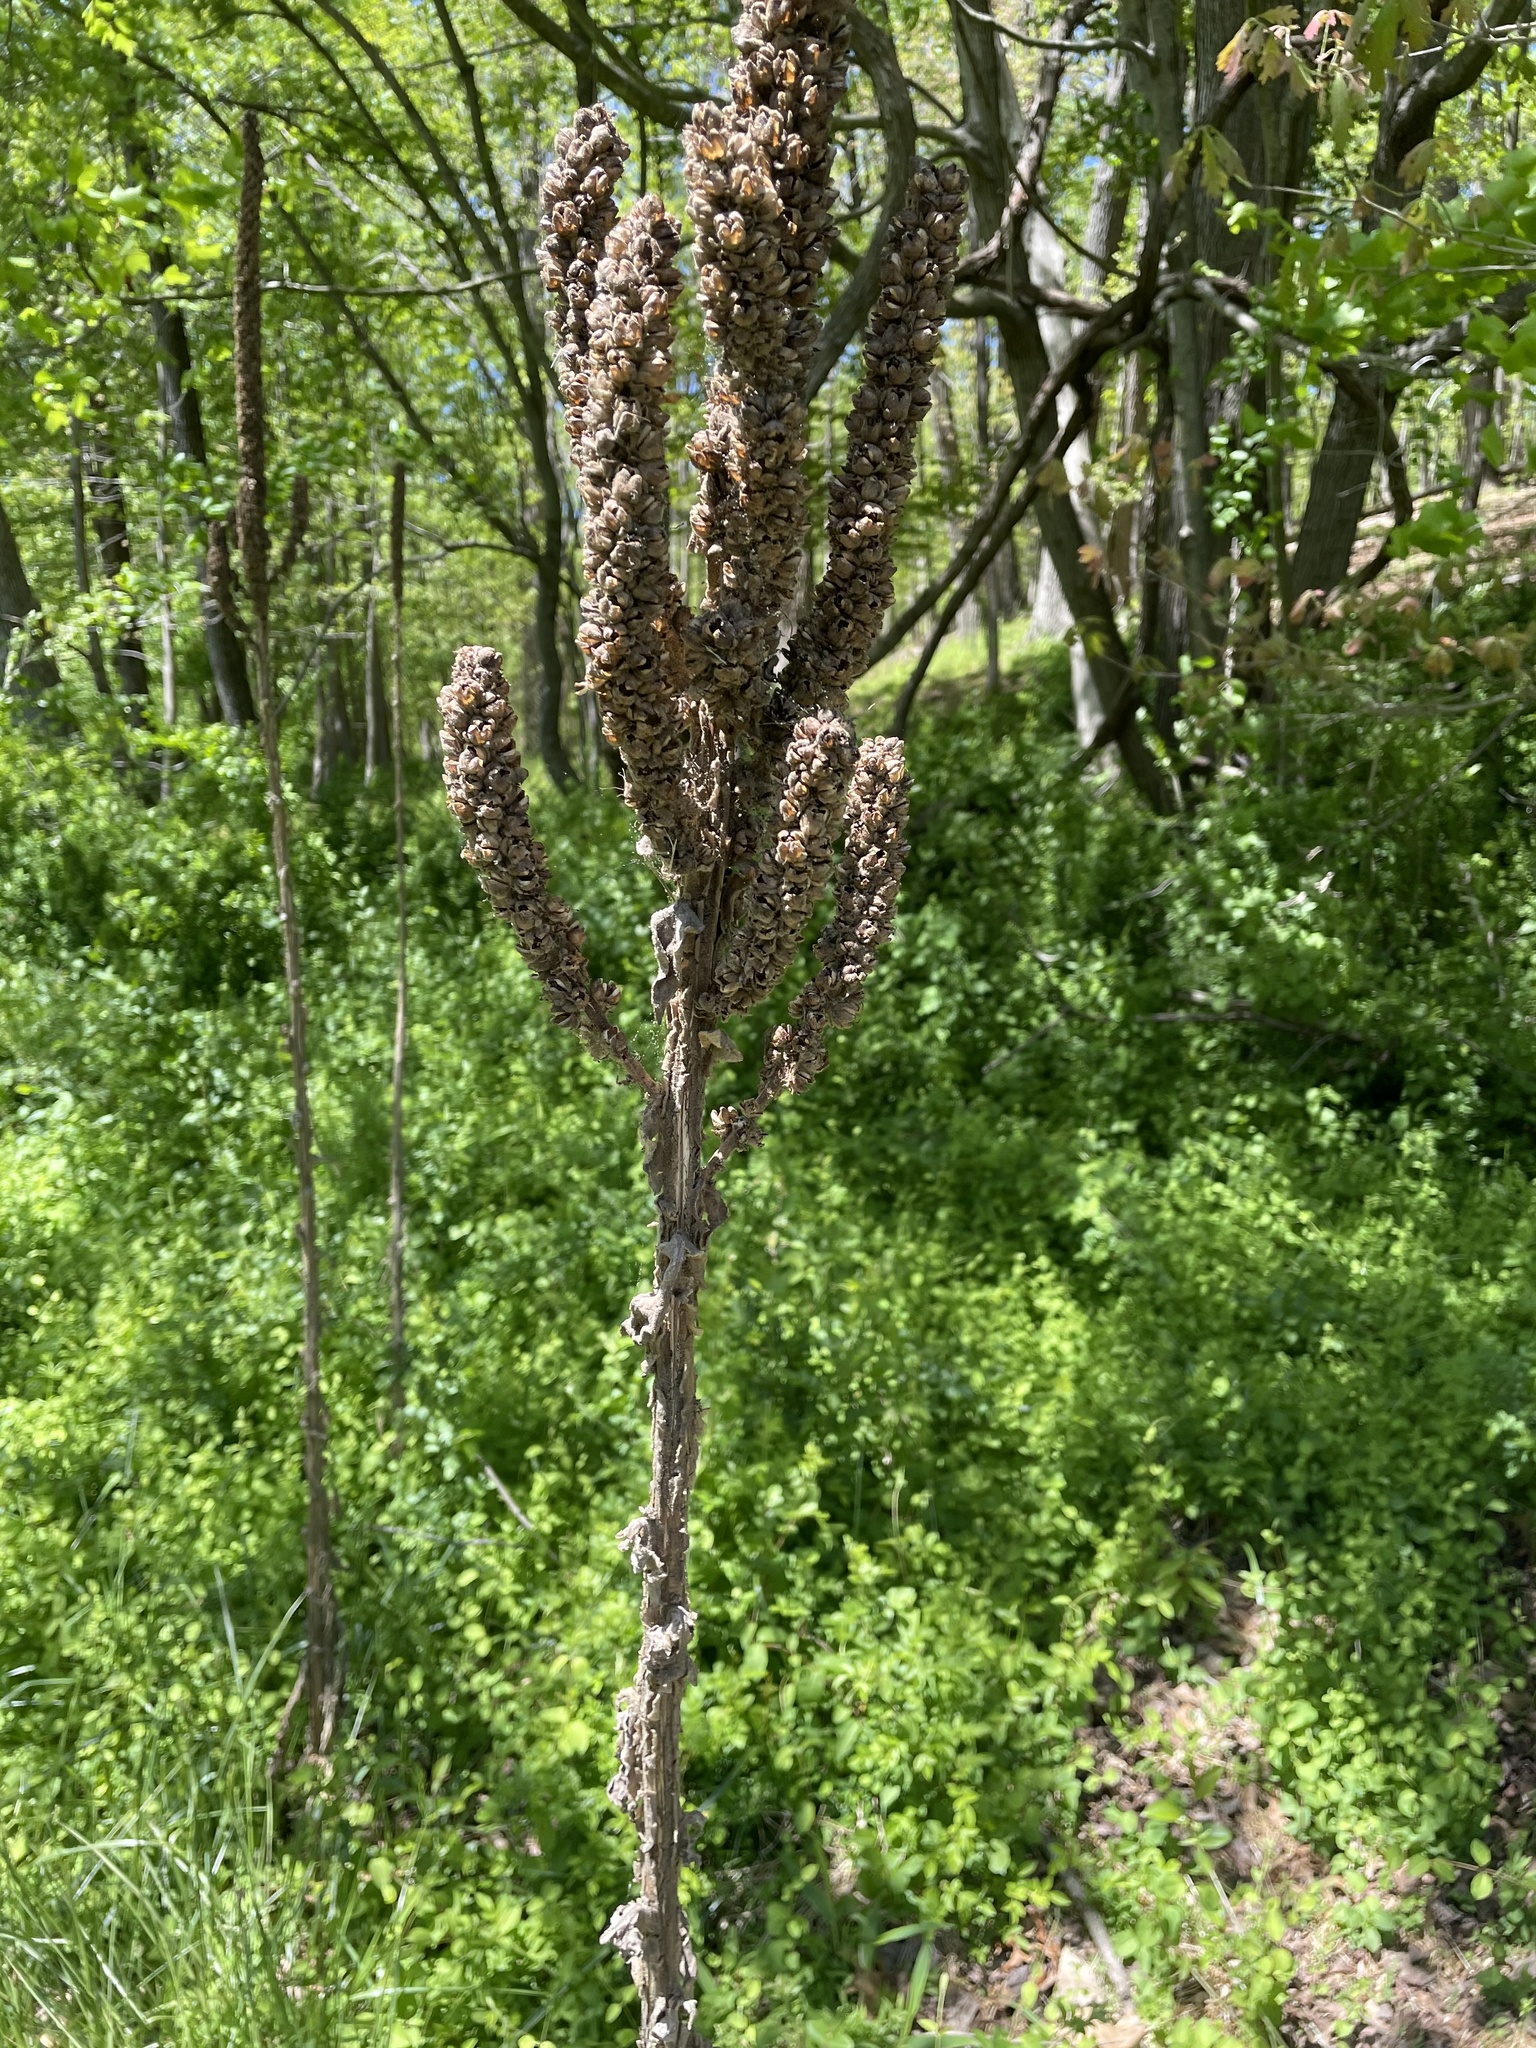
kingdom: Plantae
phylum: Tracheophyta
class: Magnoliopsida
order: Lamiales
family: Scrophulariaceae
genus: Verbascum
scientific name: Verbascum thapsus
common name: Common mullein
